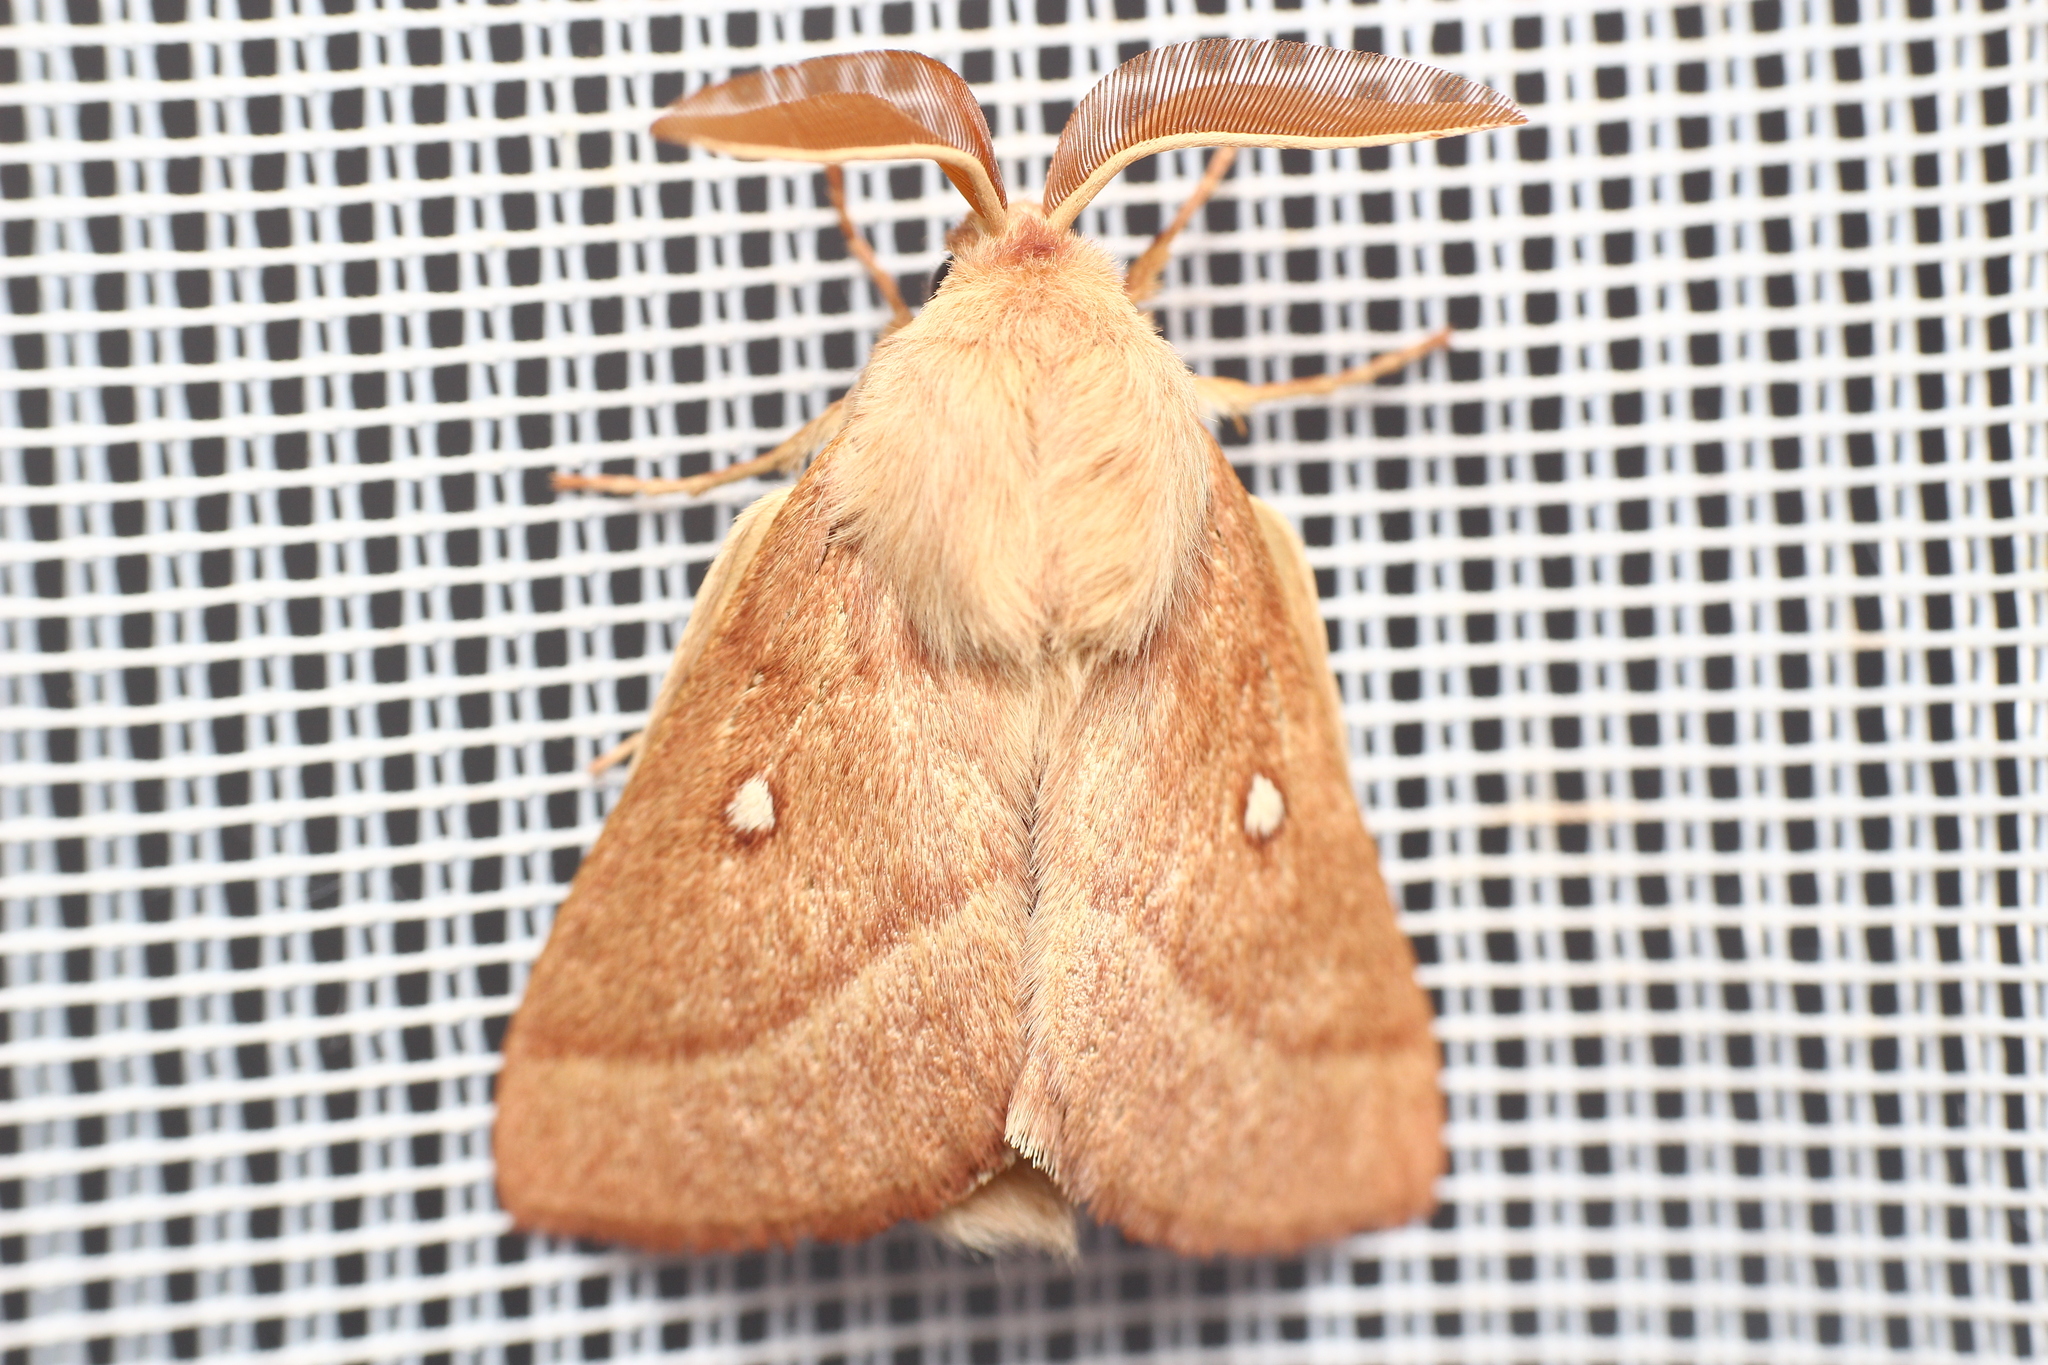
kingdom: Animalia
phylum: Arthropoda
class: Insecta
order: Lepidoptera
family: Lasiocampidae
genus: Lasiocampa
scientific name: Lasiocampa trifolii
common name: Grass eggar
